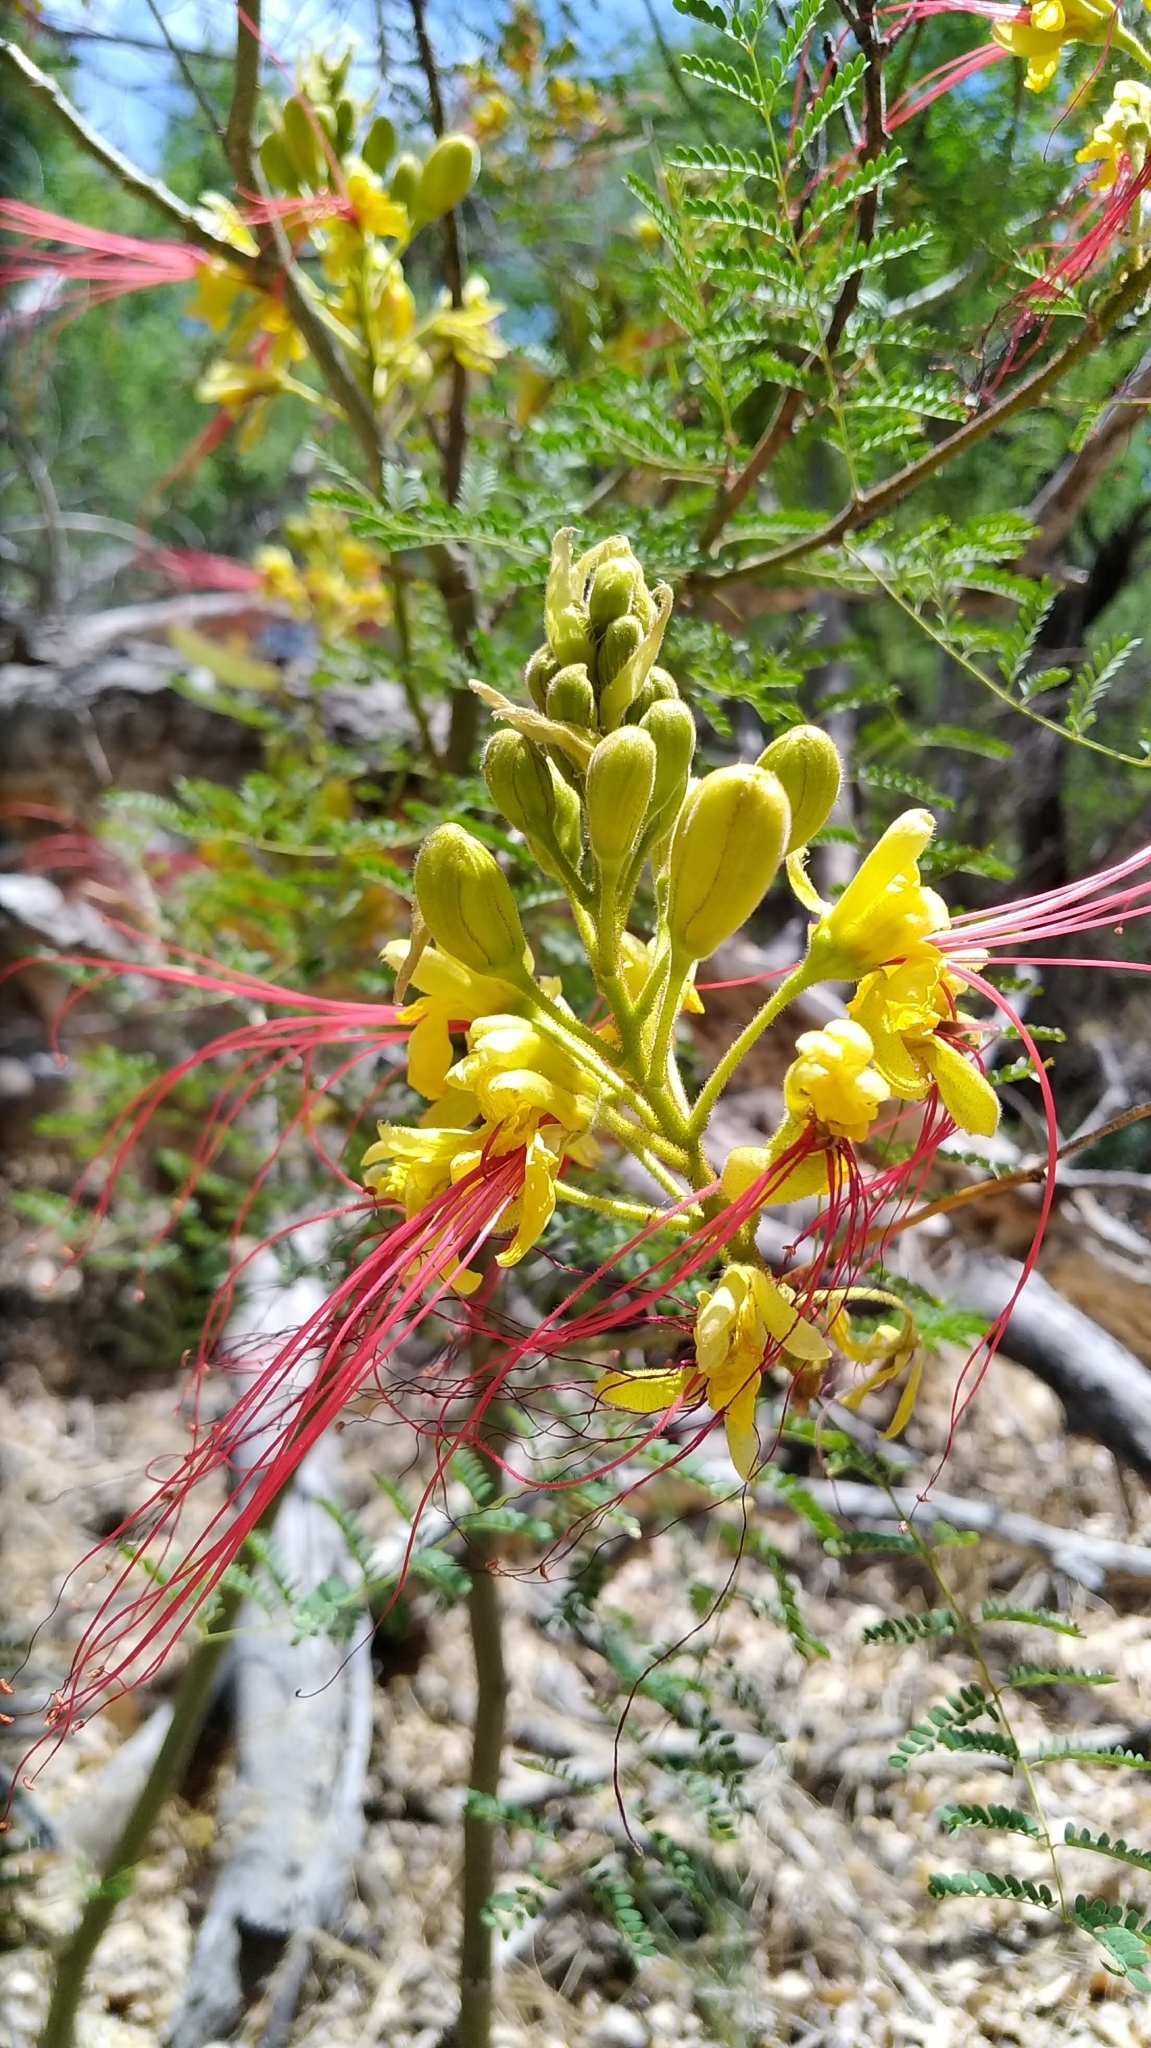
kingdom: Plantae
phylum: Tracheophyta
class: Magnoliopsida
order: Fabales
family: Fabaceae
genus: Erythrostemon
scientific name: Erythrostemon gilliesii
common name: Bird-of-paradise shrub
